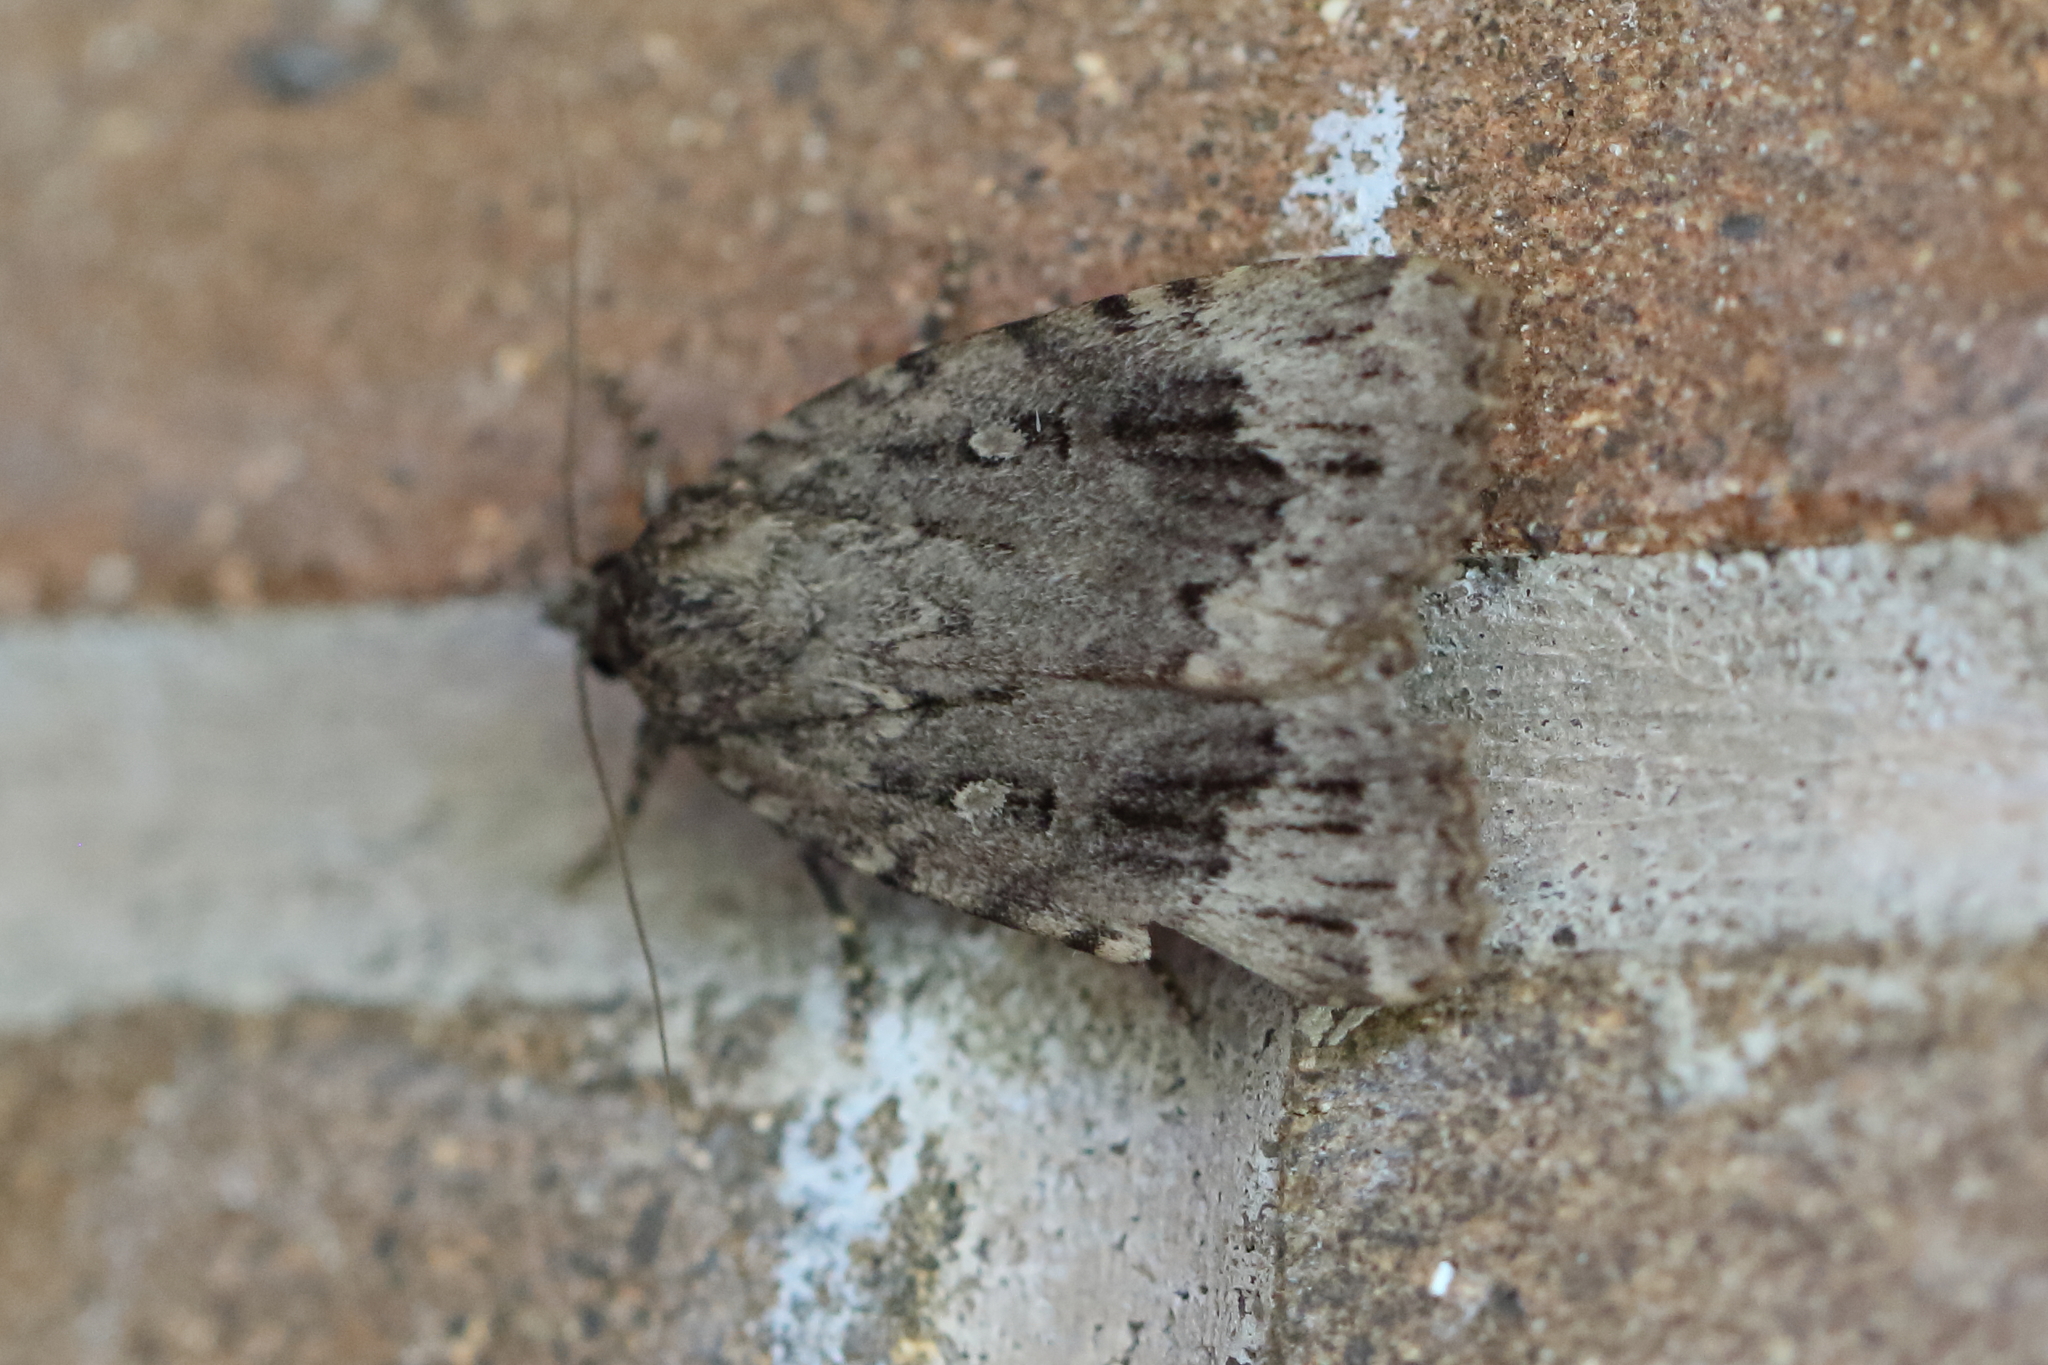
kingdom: Animalia
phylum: Arthropoda
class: Insecta
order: Lepidoptera
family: Noctuidae
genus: Amphipyra
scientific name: Amphipyra pyramidoides
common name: American copper underwing
